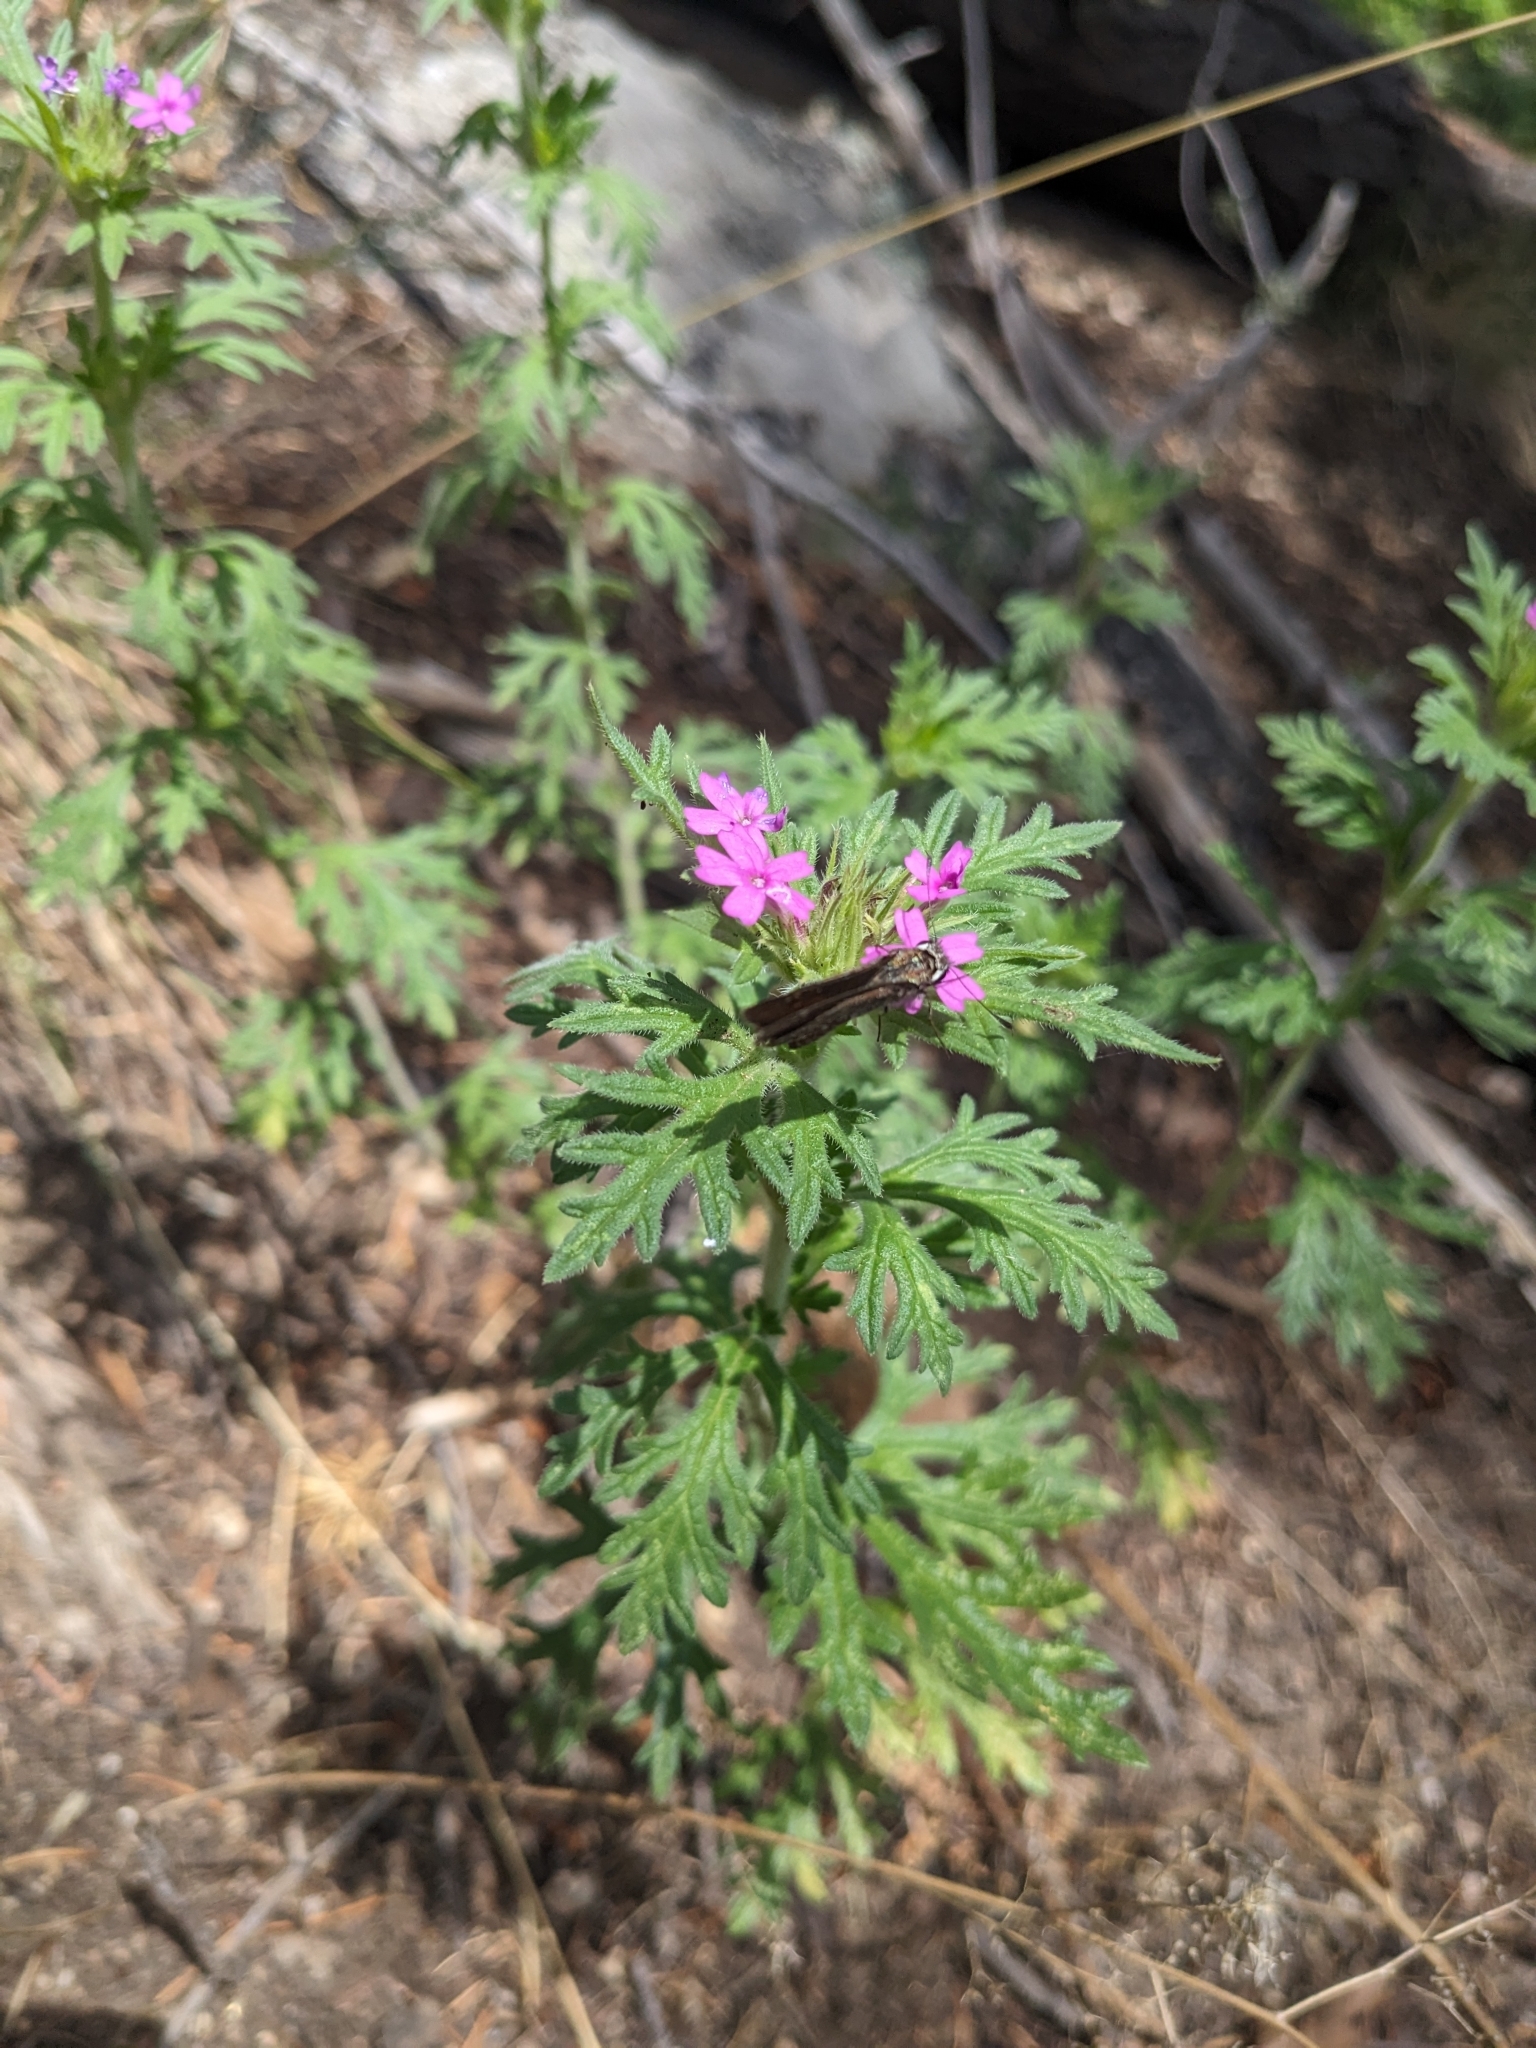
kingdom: Plantae
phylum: Tracheophyta
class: Magnoliopsida
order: Lamiales
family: Verbenaceae
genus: Verbena
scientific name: Verbena chiricahensis
